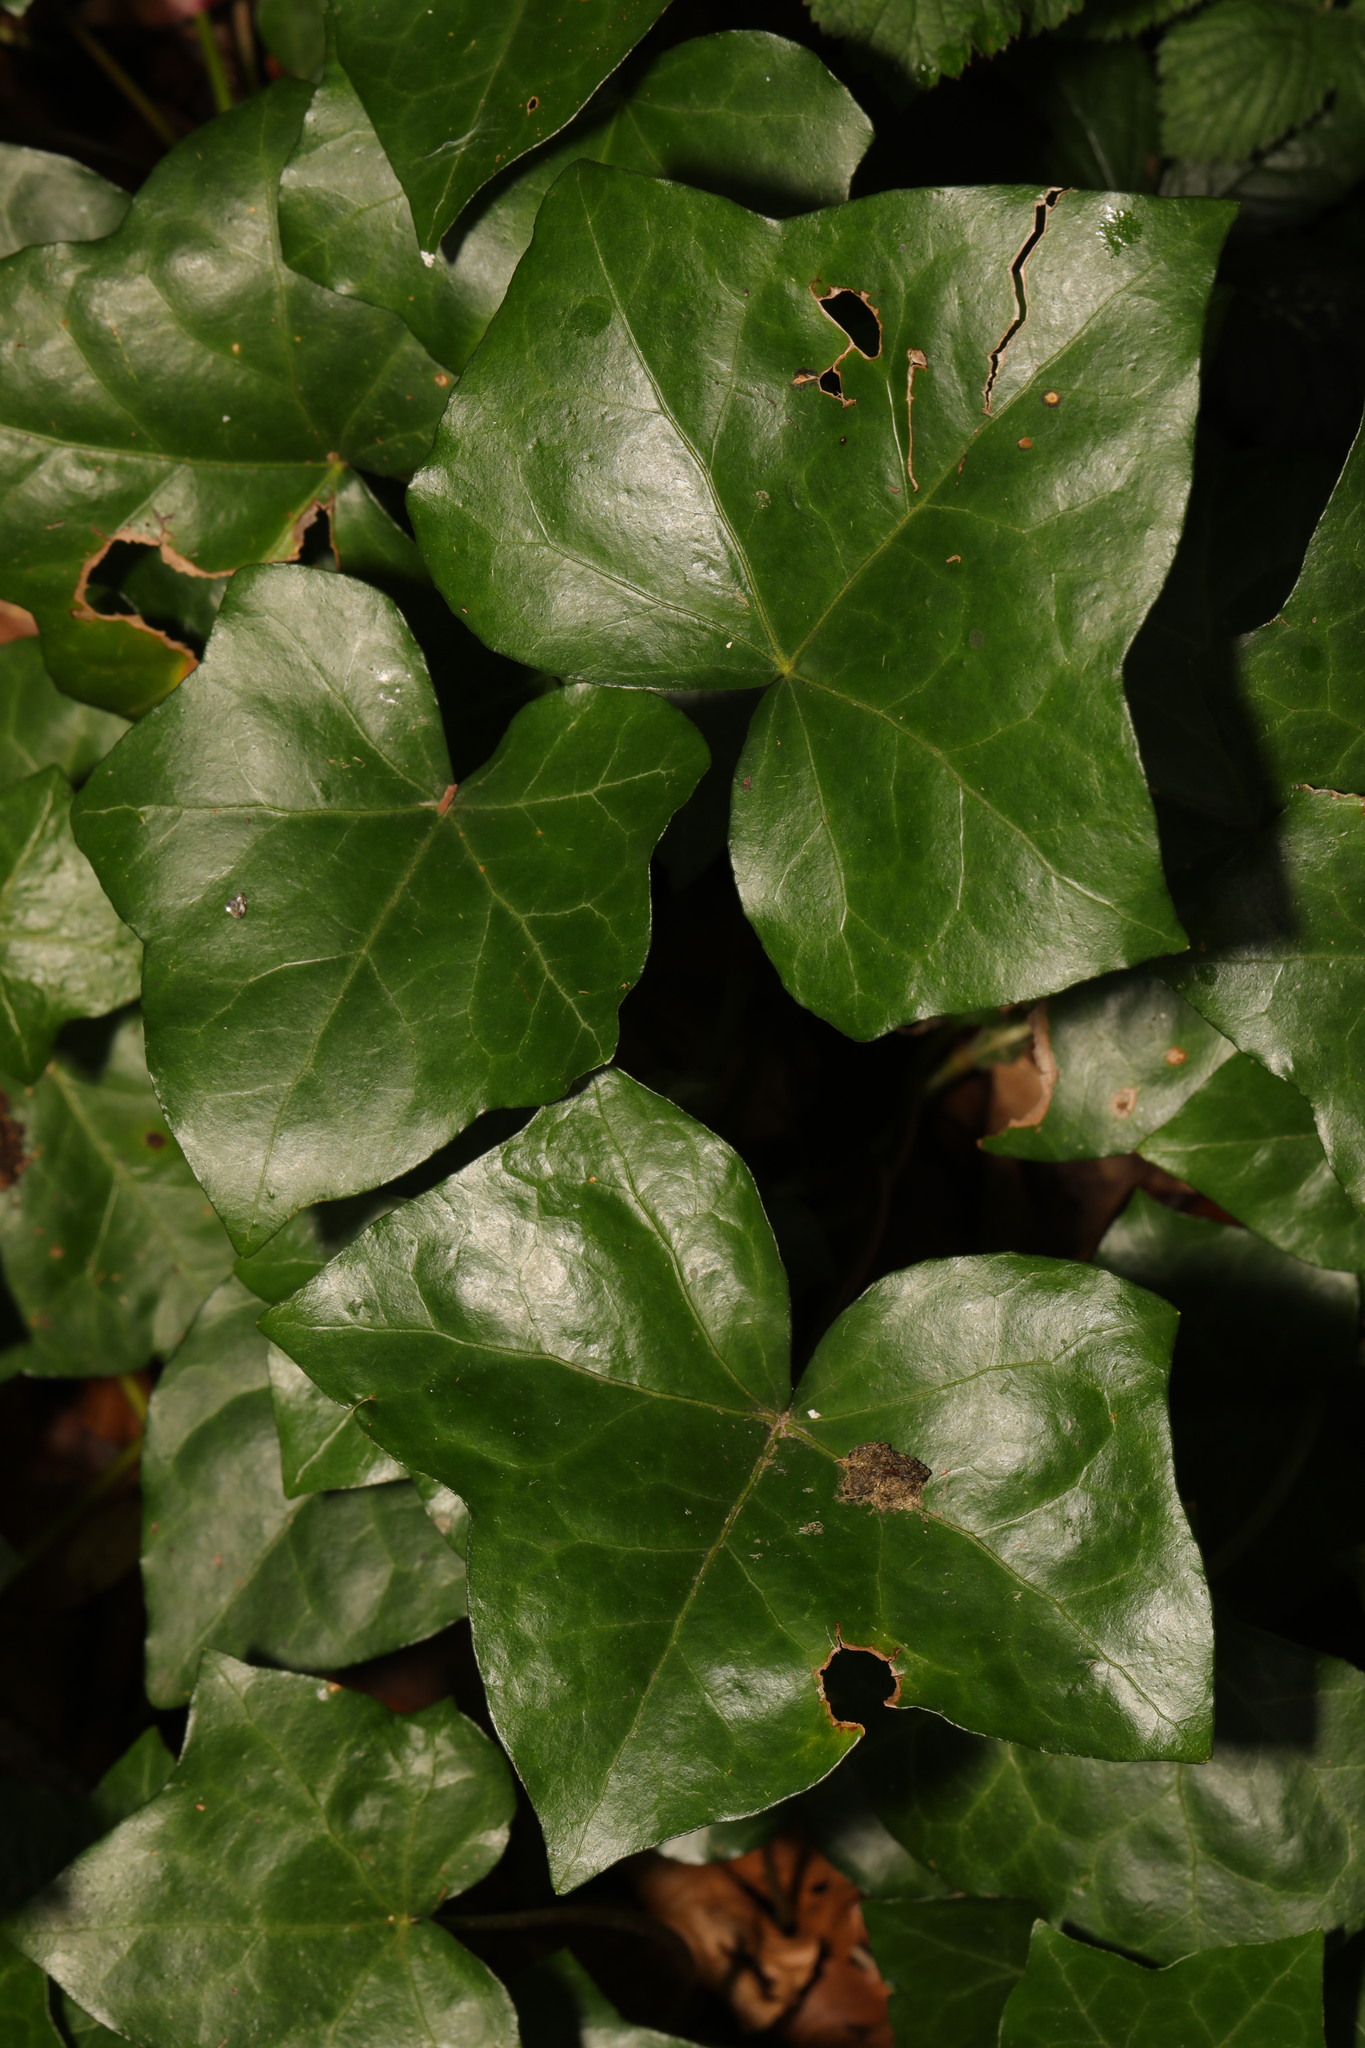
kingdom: Plantae
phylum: Tracheophyta
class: Magnoliopsida
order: Apiales
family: Araliaceae
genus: Hedera
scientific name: Hedera helix
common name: Ivy
